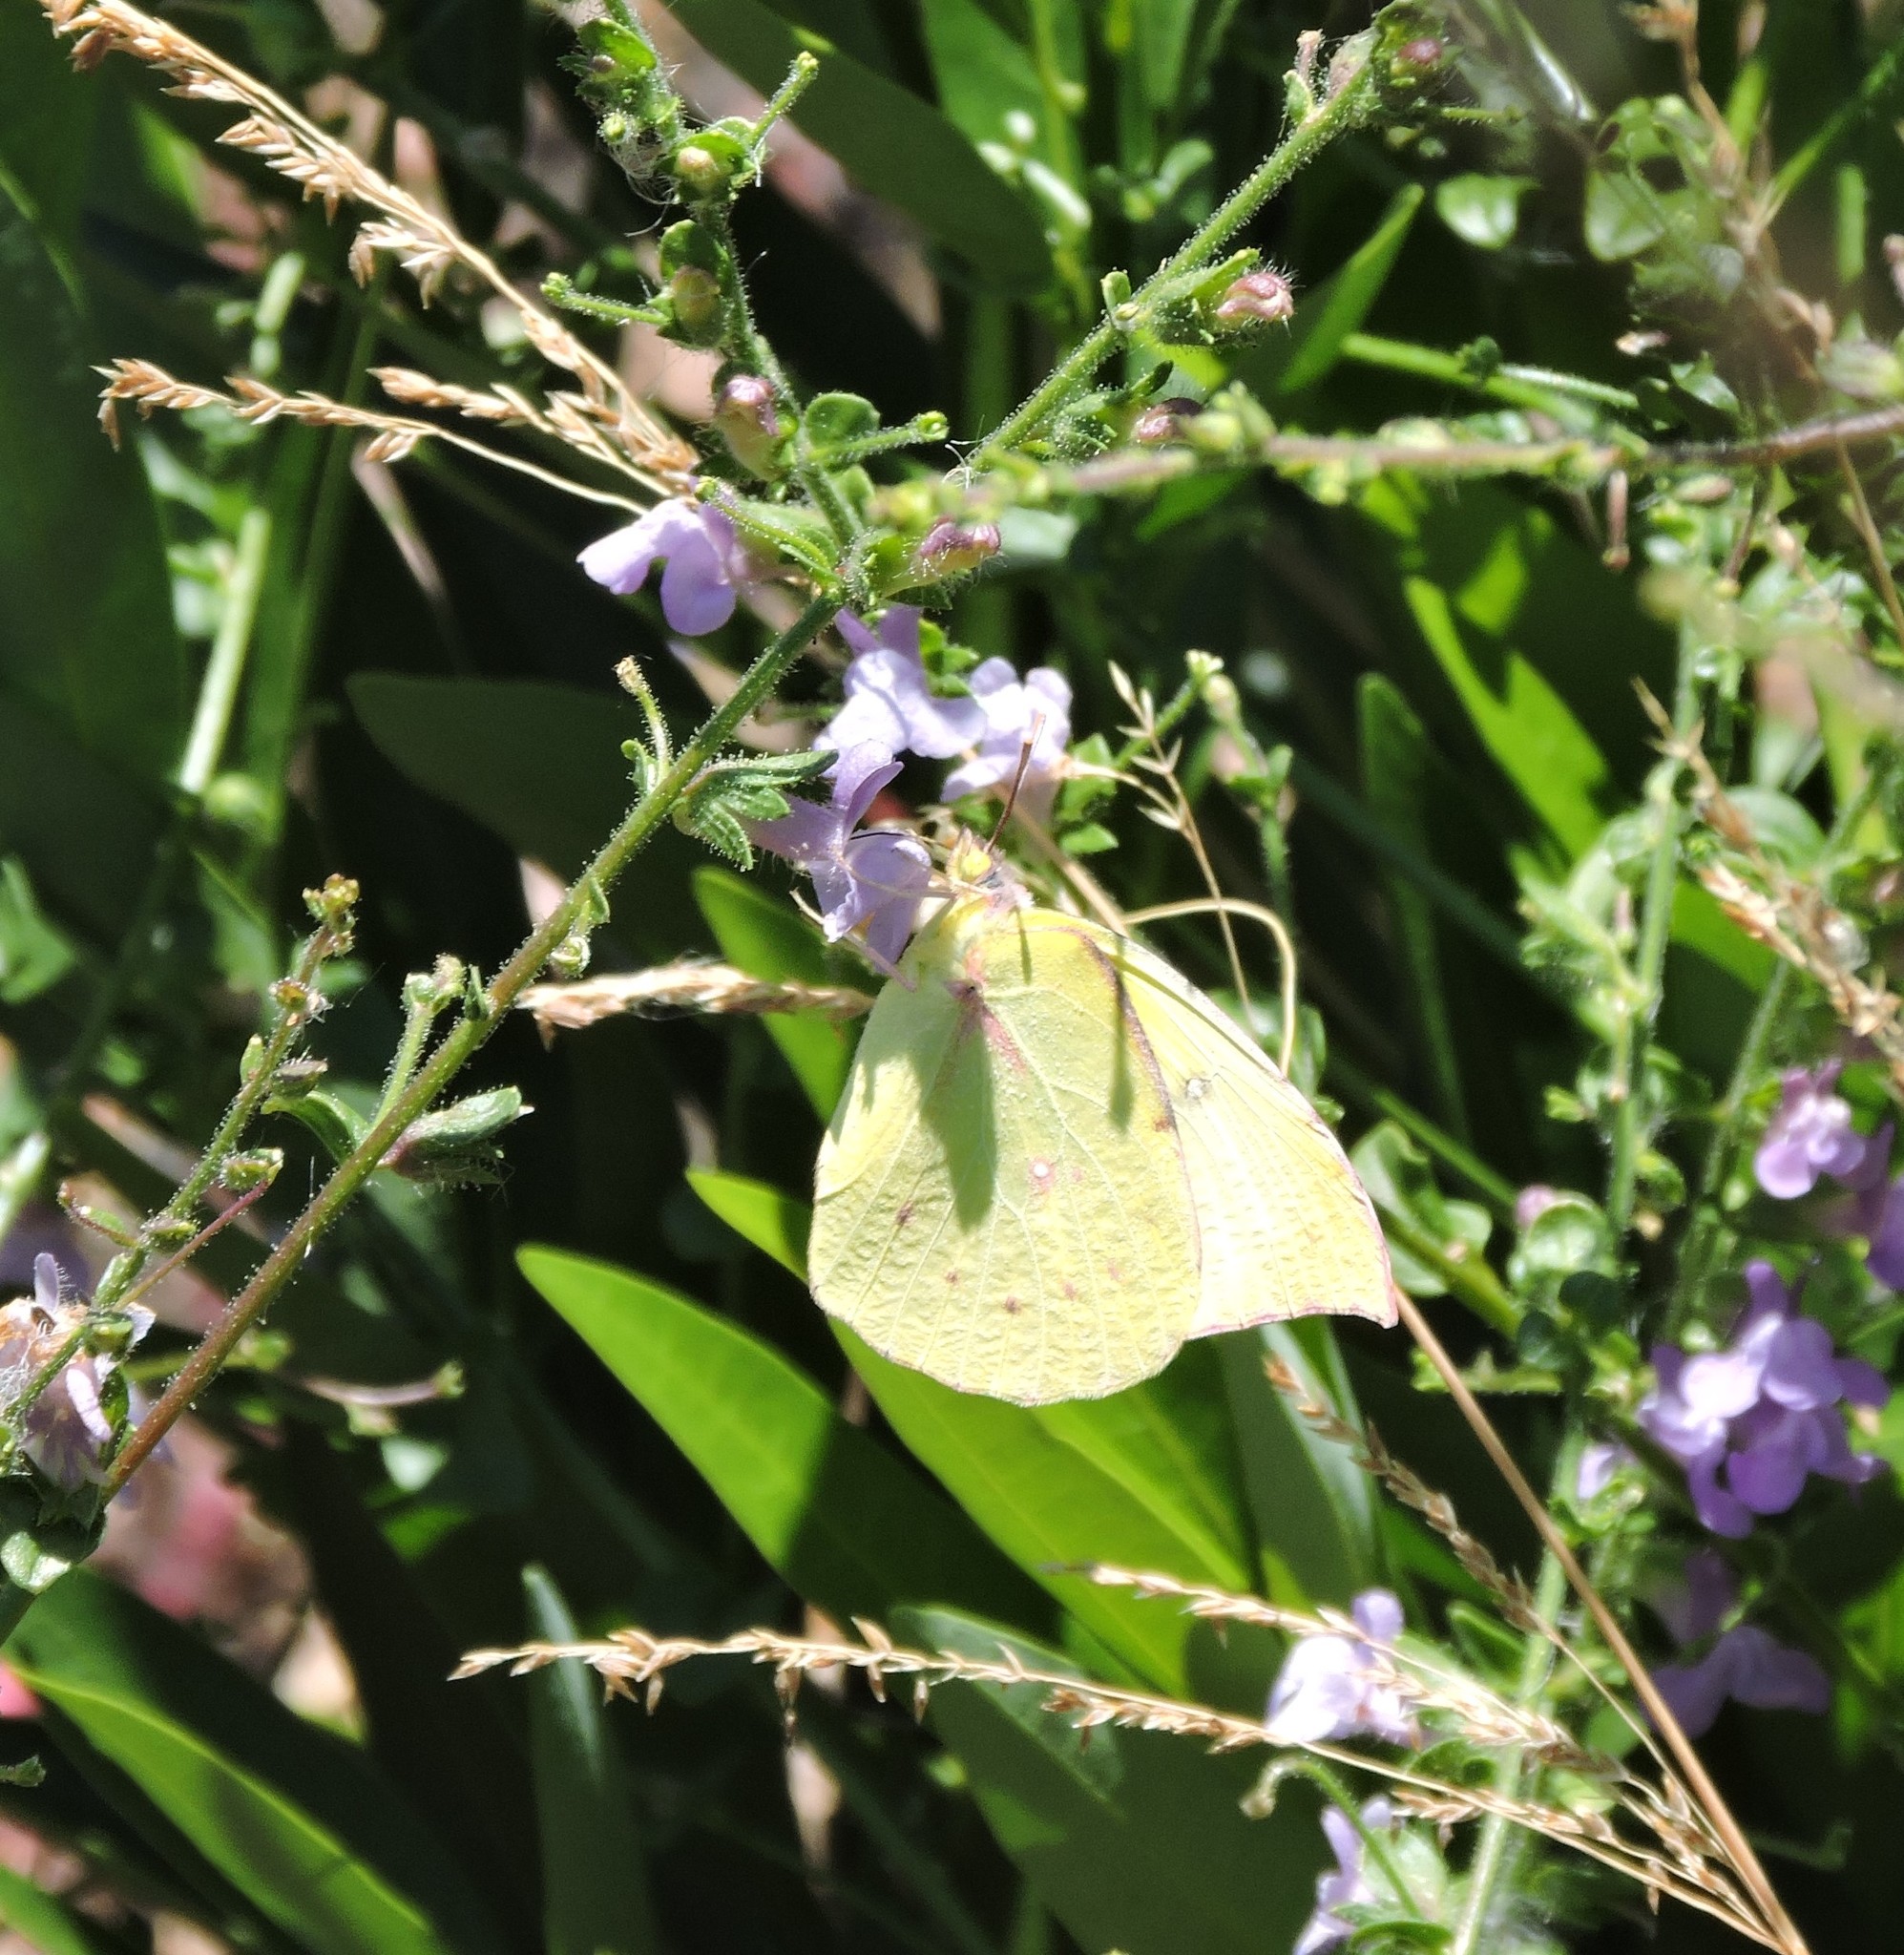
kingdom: Animalia
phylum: Arthropoda
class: Insecta
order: Lepidoptera
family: Pieridae
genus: Zerene
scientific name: Zerene eurydice
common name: California dogface
